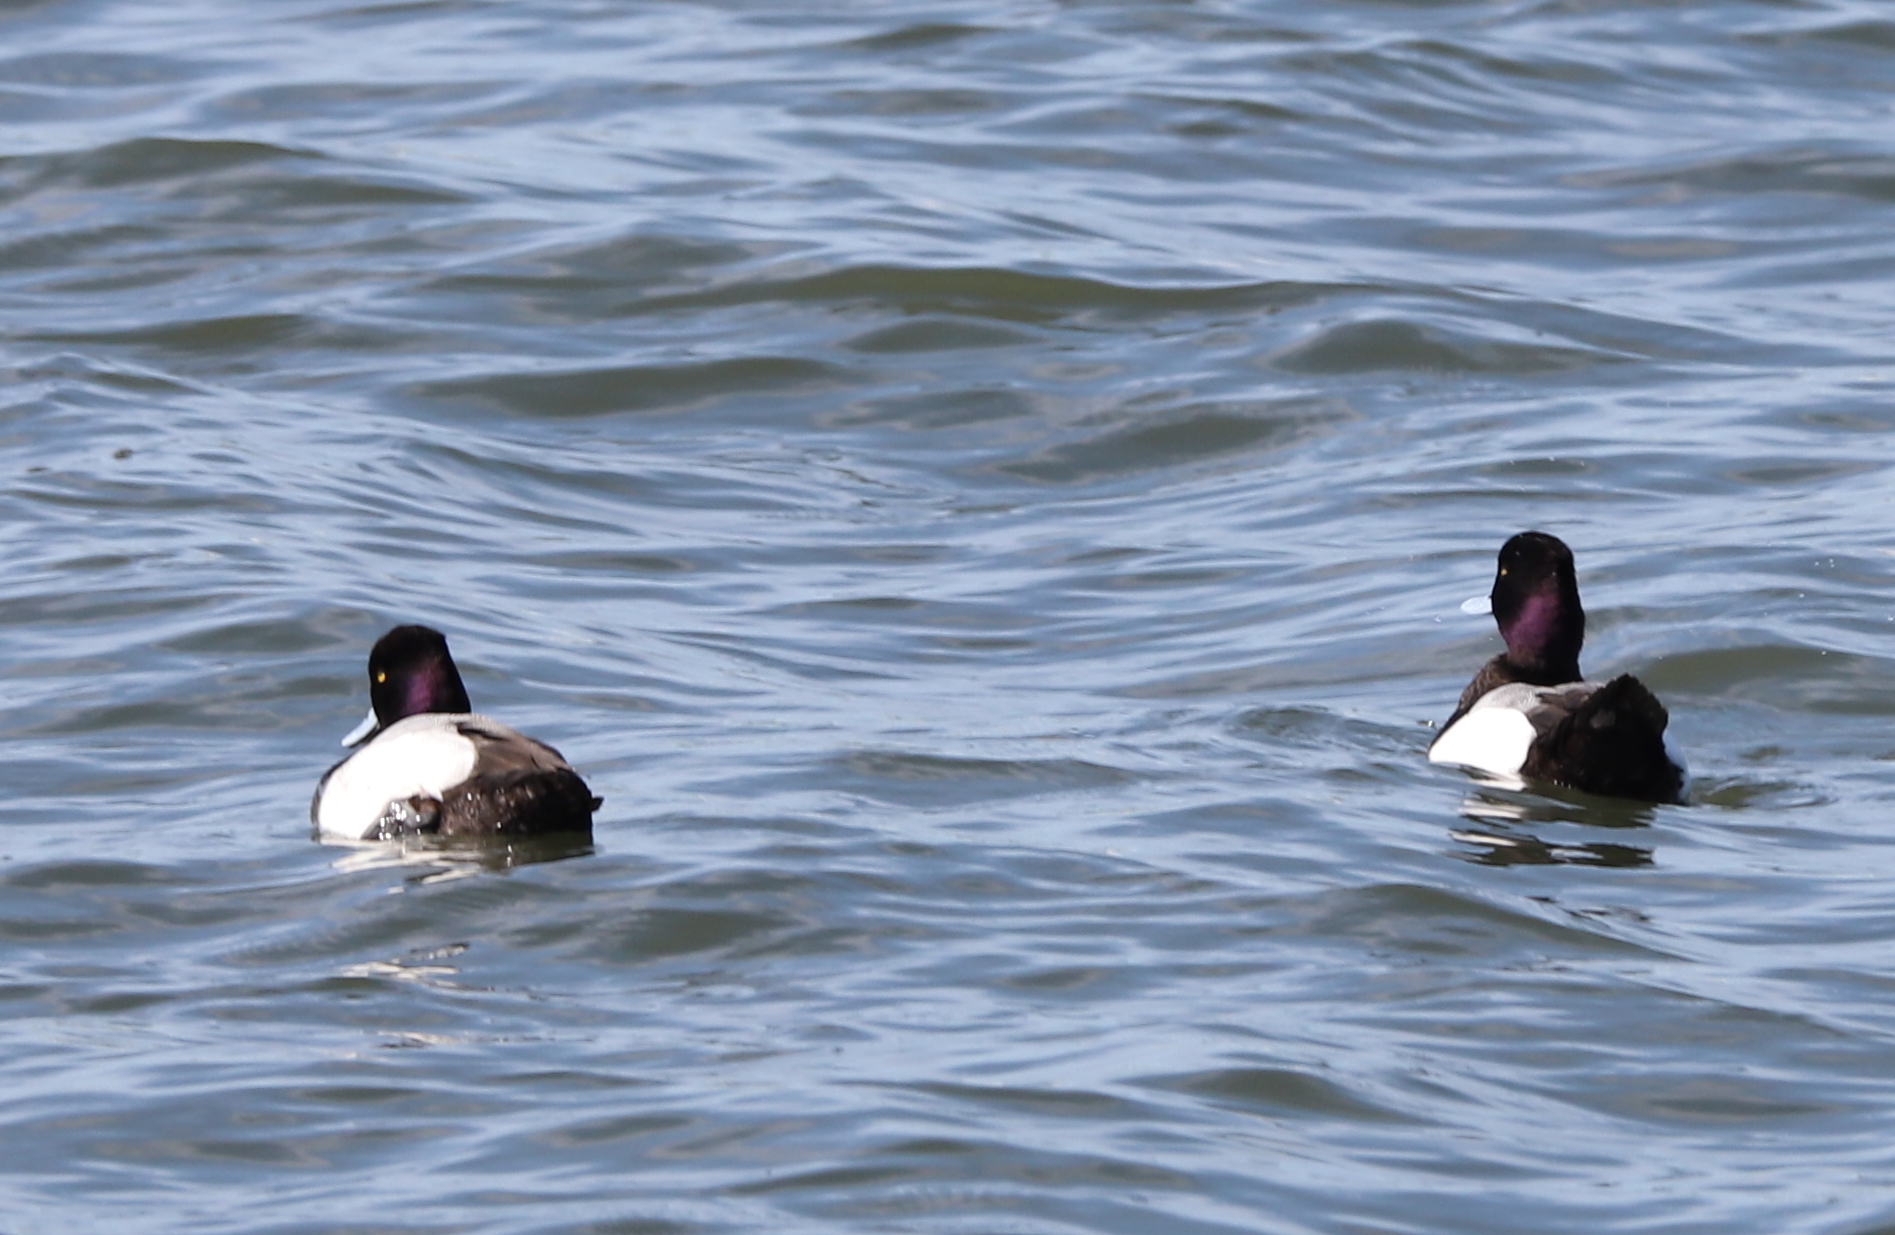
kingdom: Animalia
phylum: Chordata
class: Aves
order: Anseriformes
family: Anatidae
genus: Aythya
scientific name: Aythya affinis
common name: Lesser scaup
